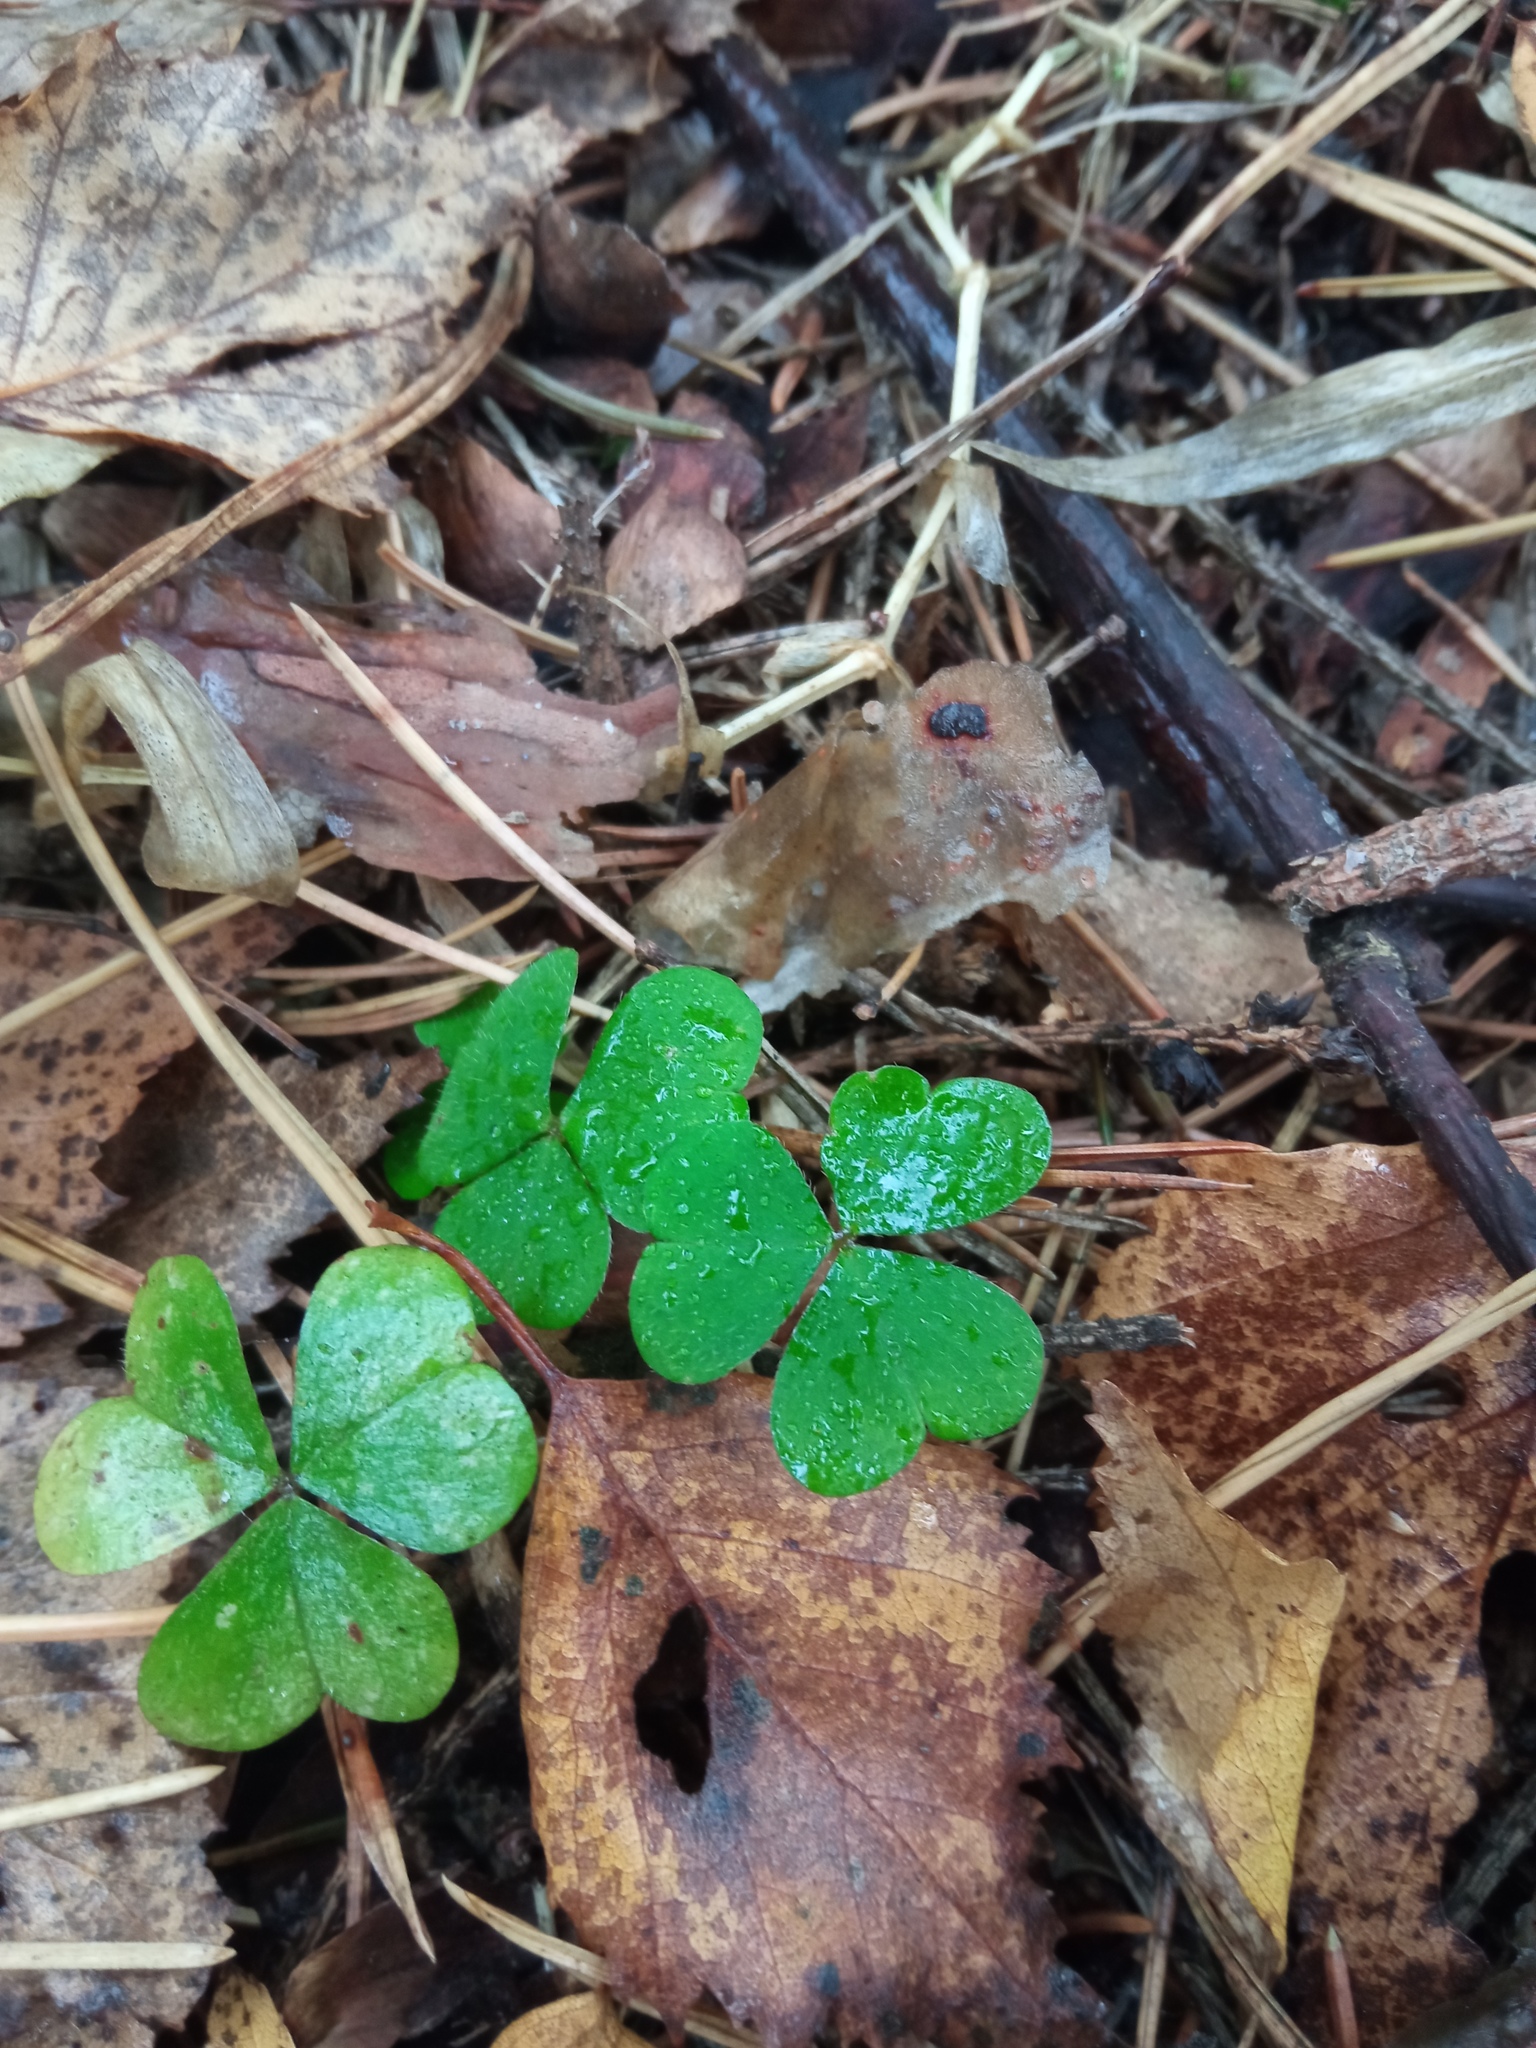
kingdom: Plantae
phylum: Tracheophyta
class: Magnoliopsida
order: Oxalidales
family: Oxalidaceae
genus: Oxalis
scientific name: Oxalis acetosella
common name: Wood-sorrel
